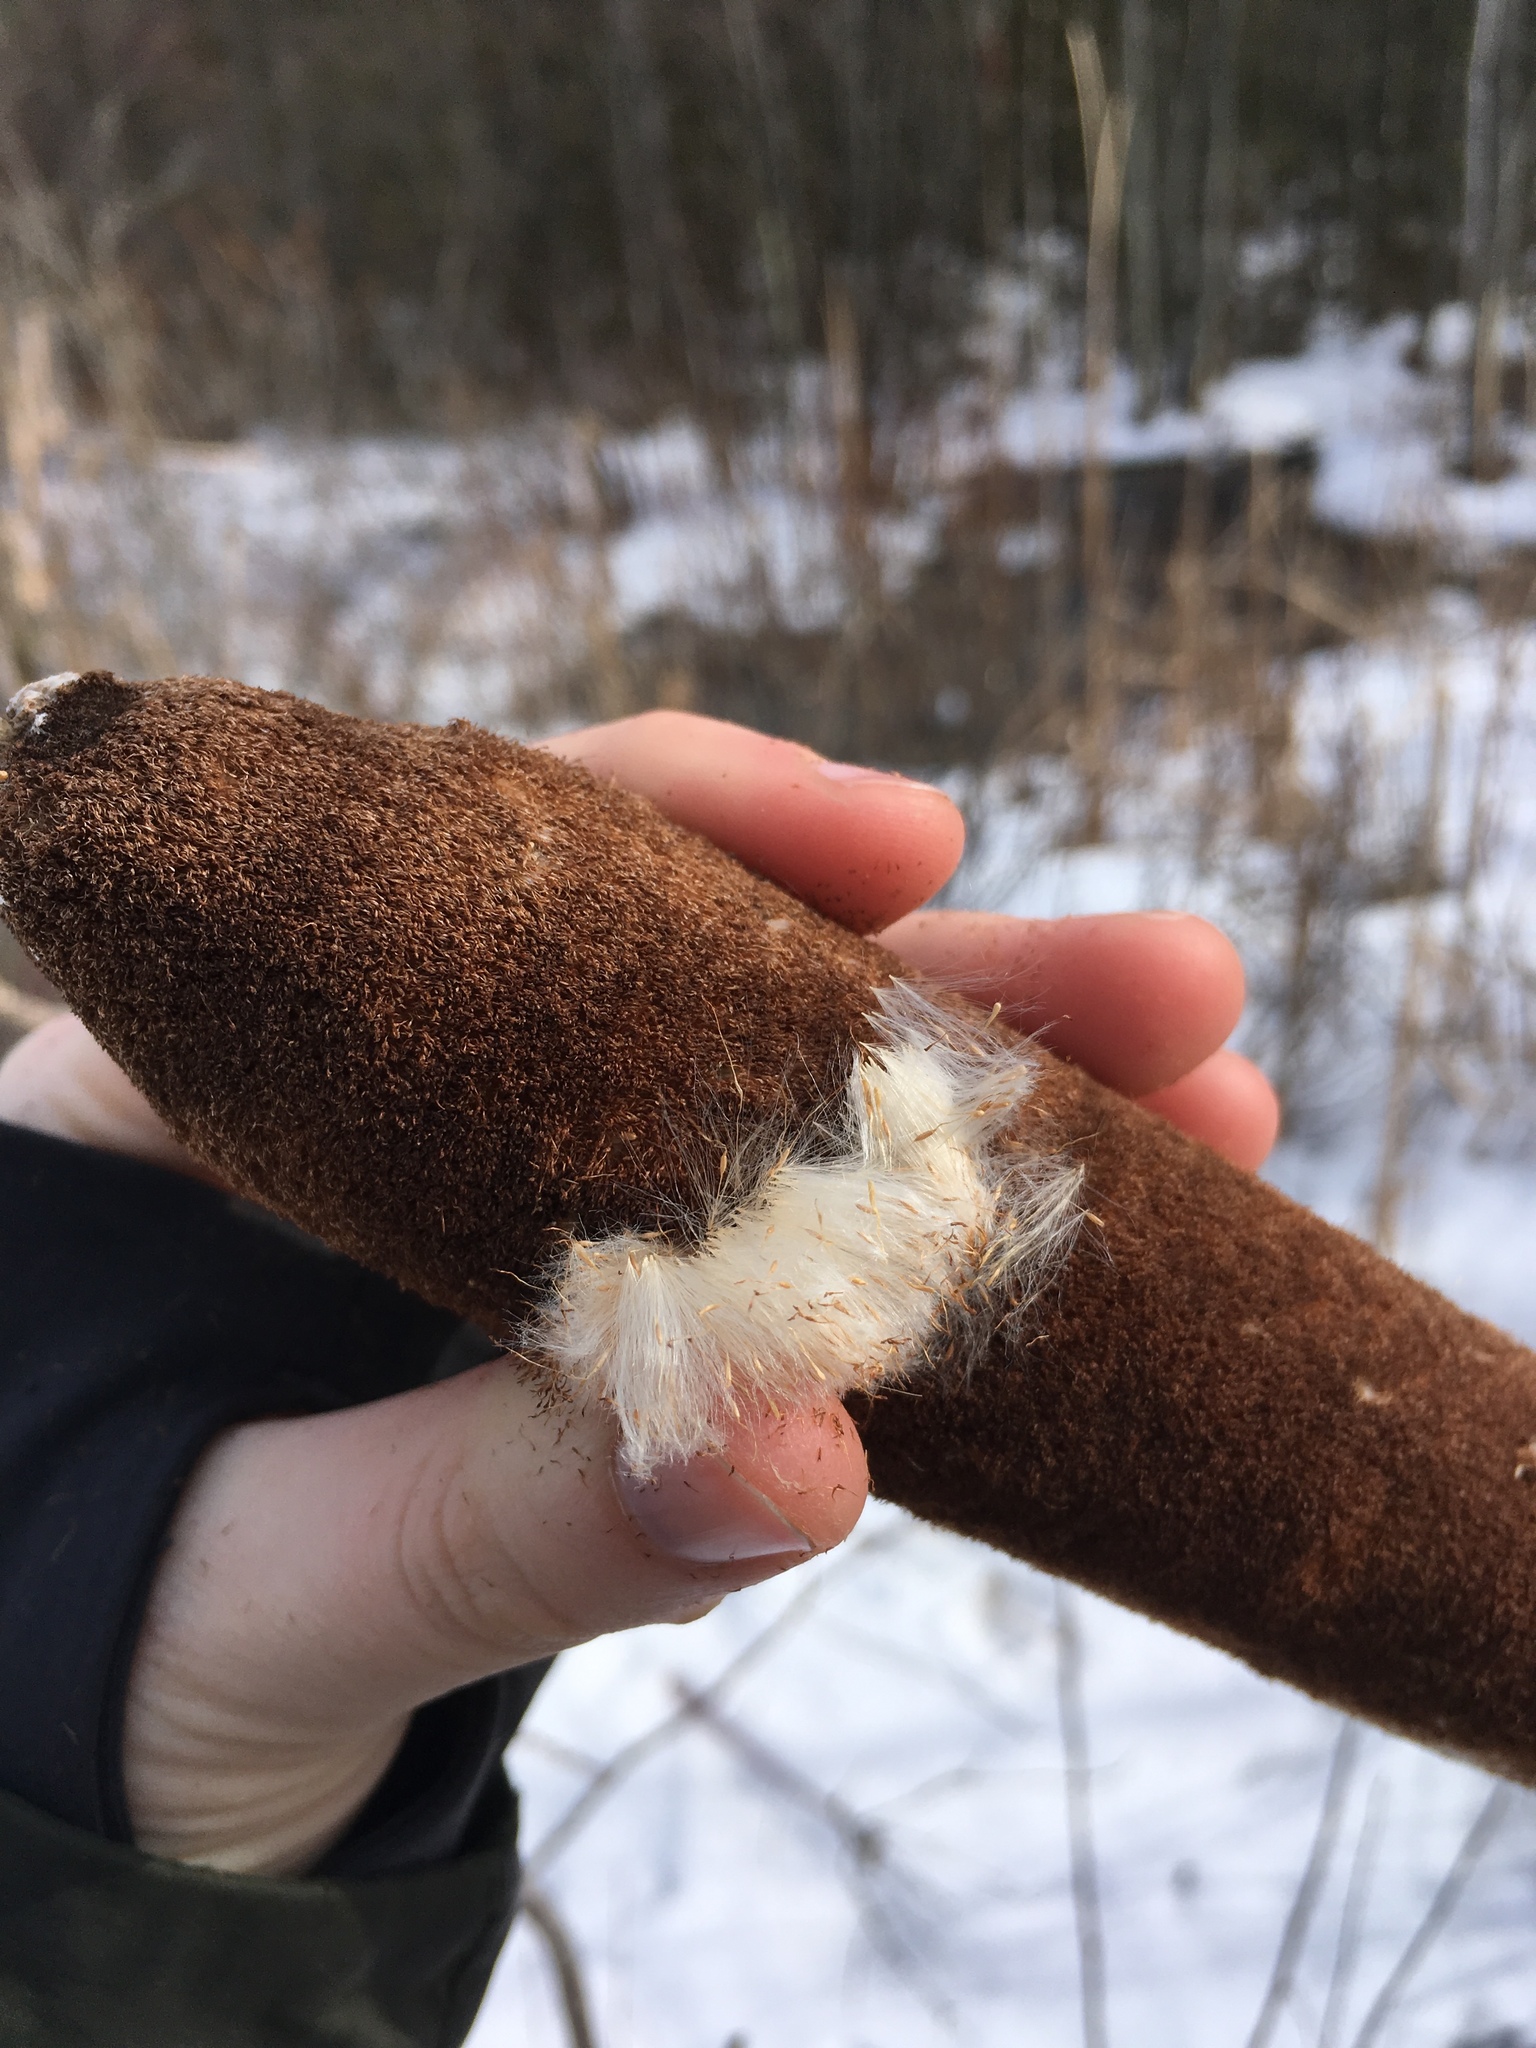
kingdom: Plantae
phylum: Tracheophyta
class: Liliopsida
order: Poales
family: Typhaceae
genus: Typha
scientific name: Typha latifolia
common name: Broadleaf cattail
